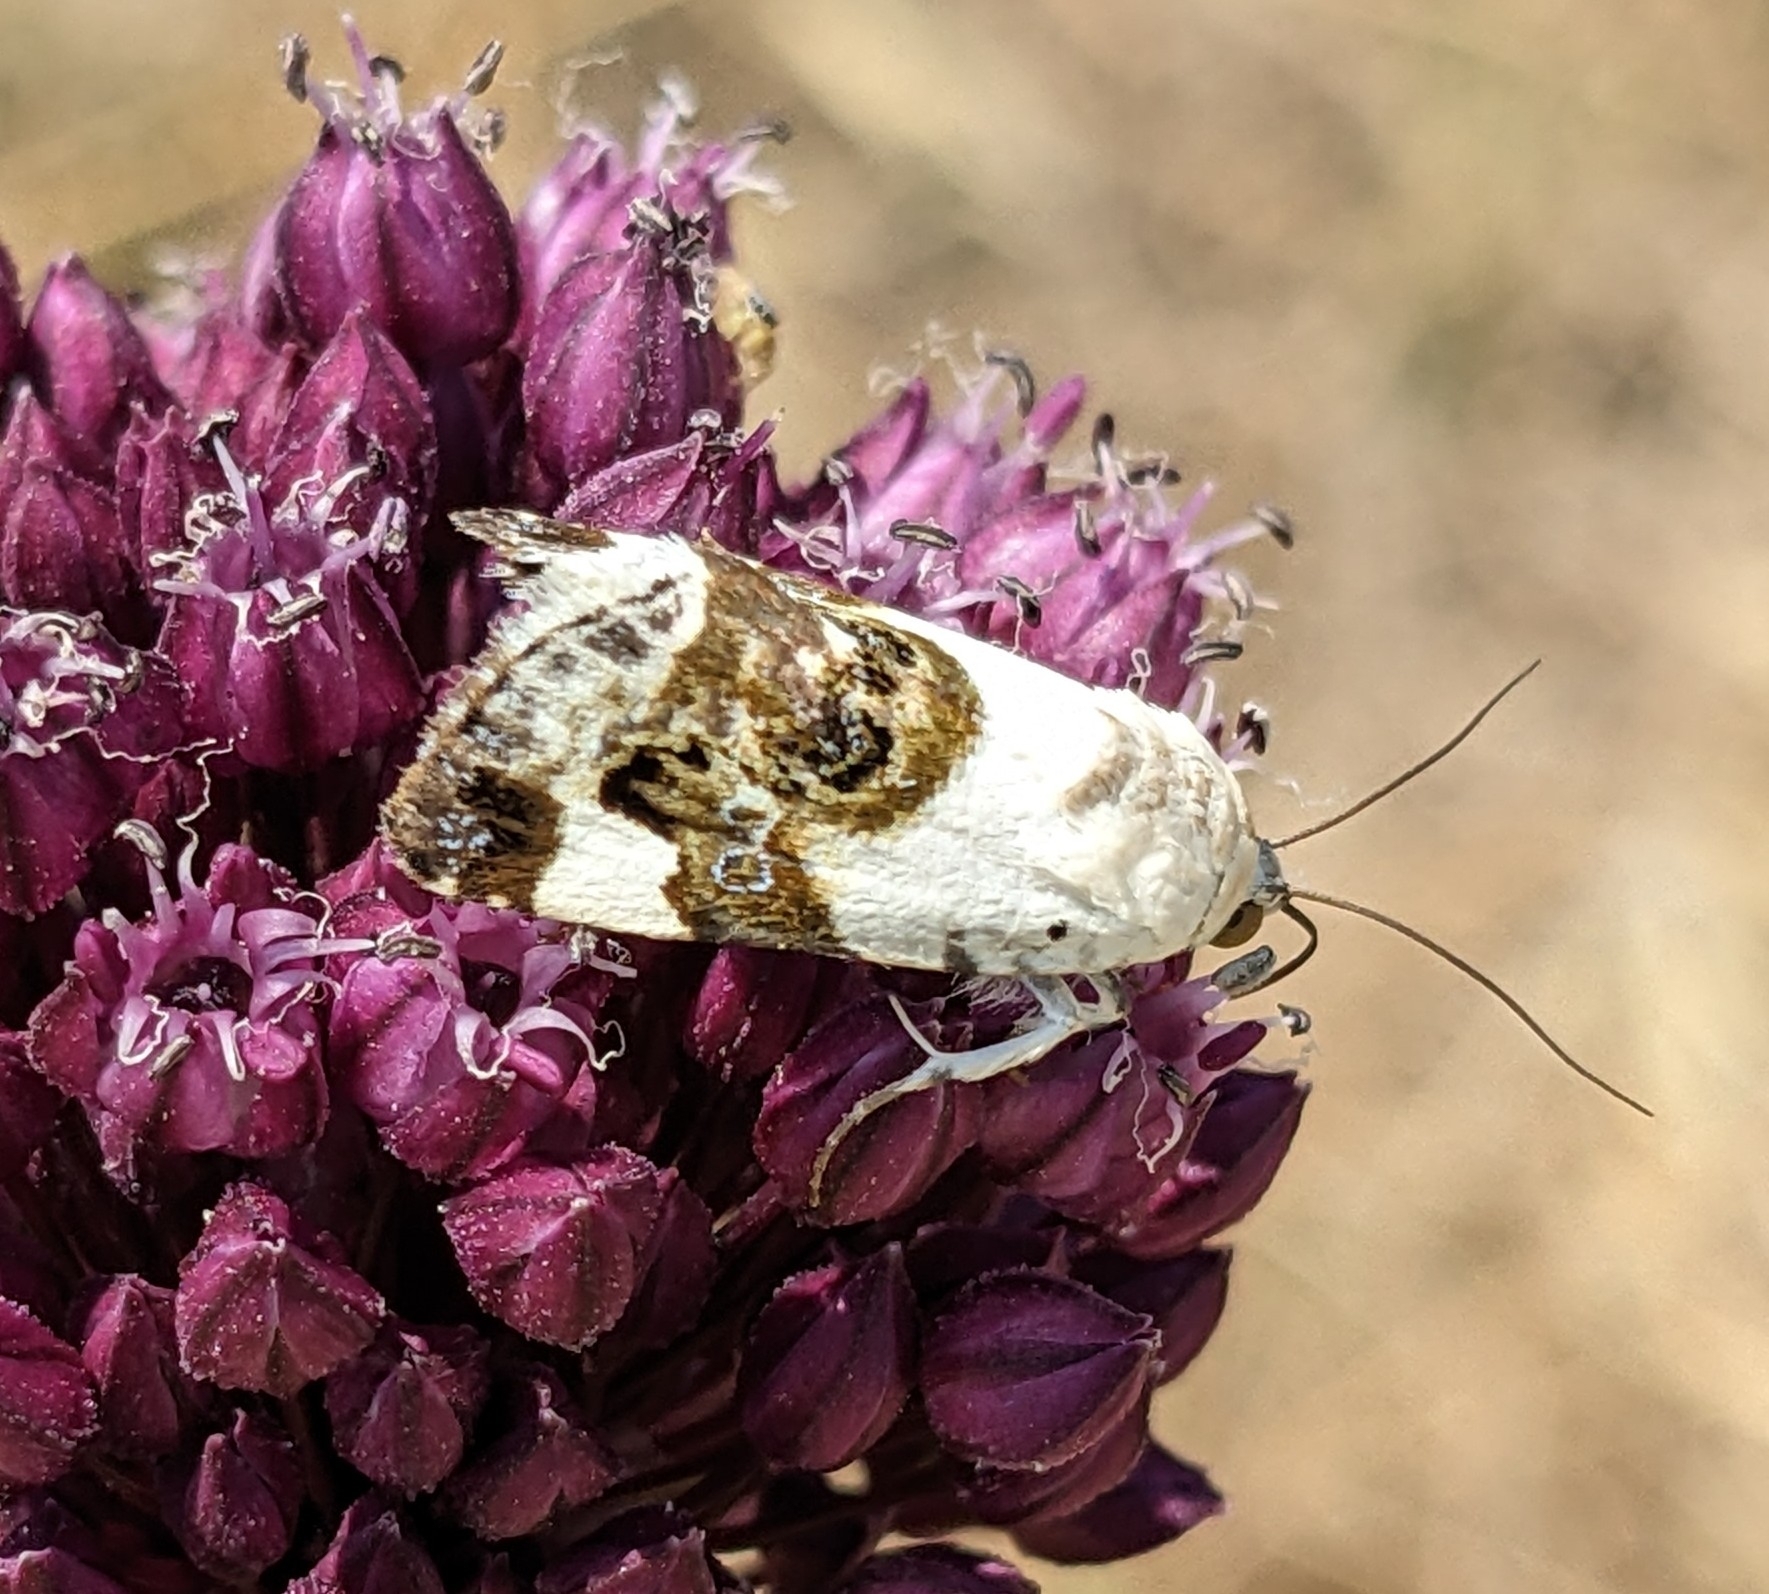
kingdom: Animalia
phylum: Arthropoda
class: Insecta
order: Lepidoptera
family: Noctuidae
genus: Acontia
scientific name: Acontia lucida
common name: Pale shoulder
